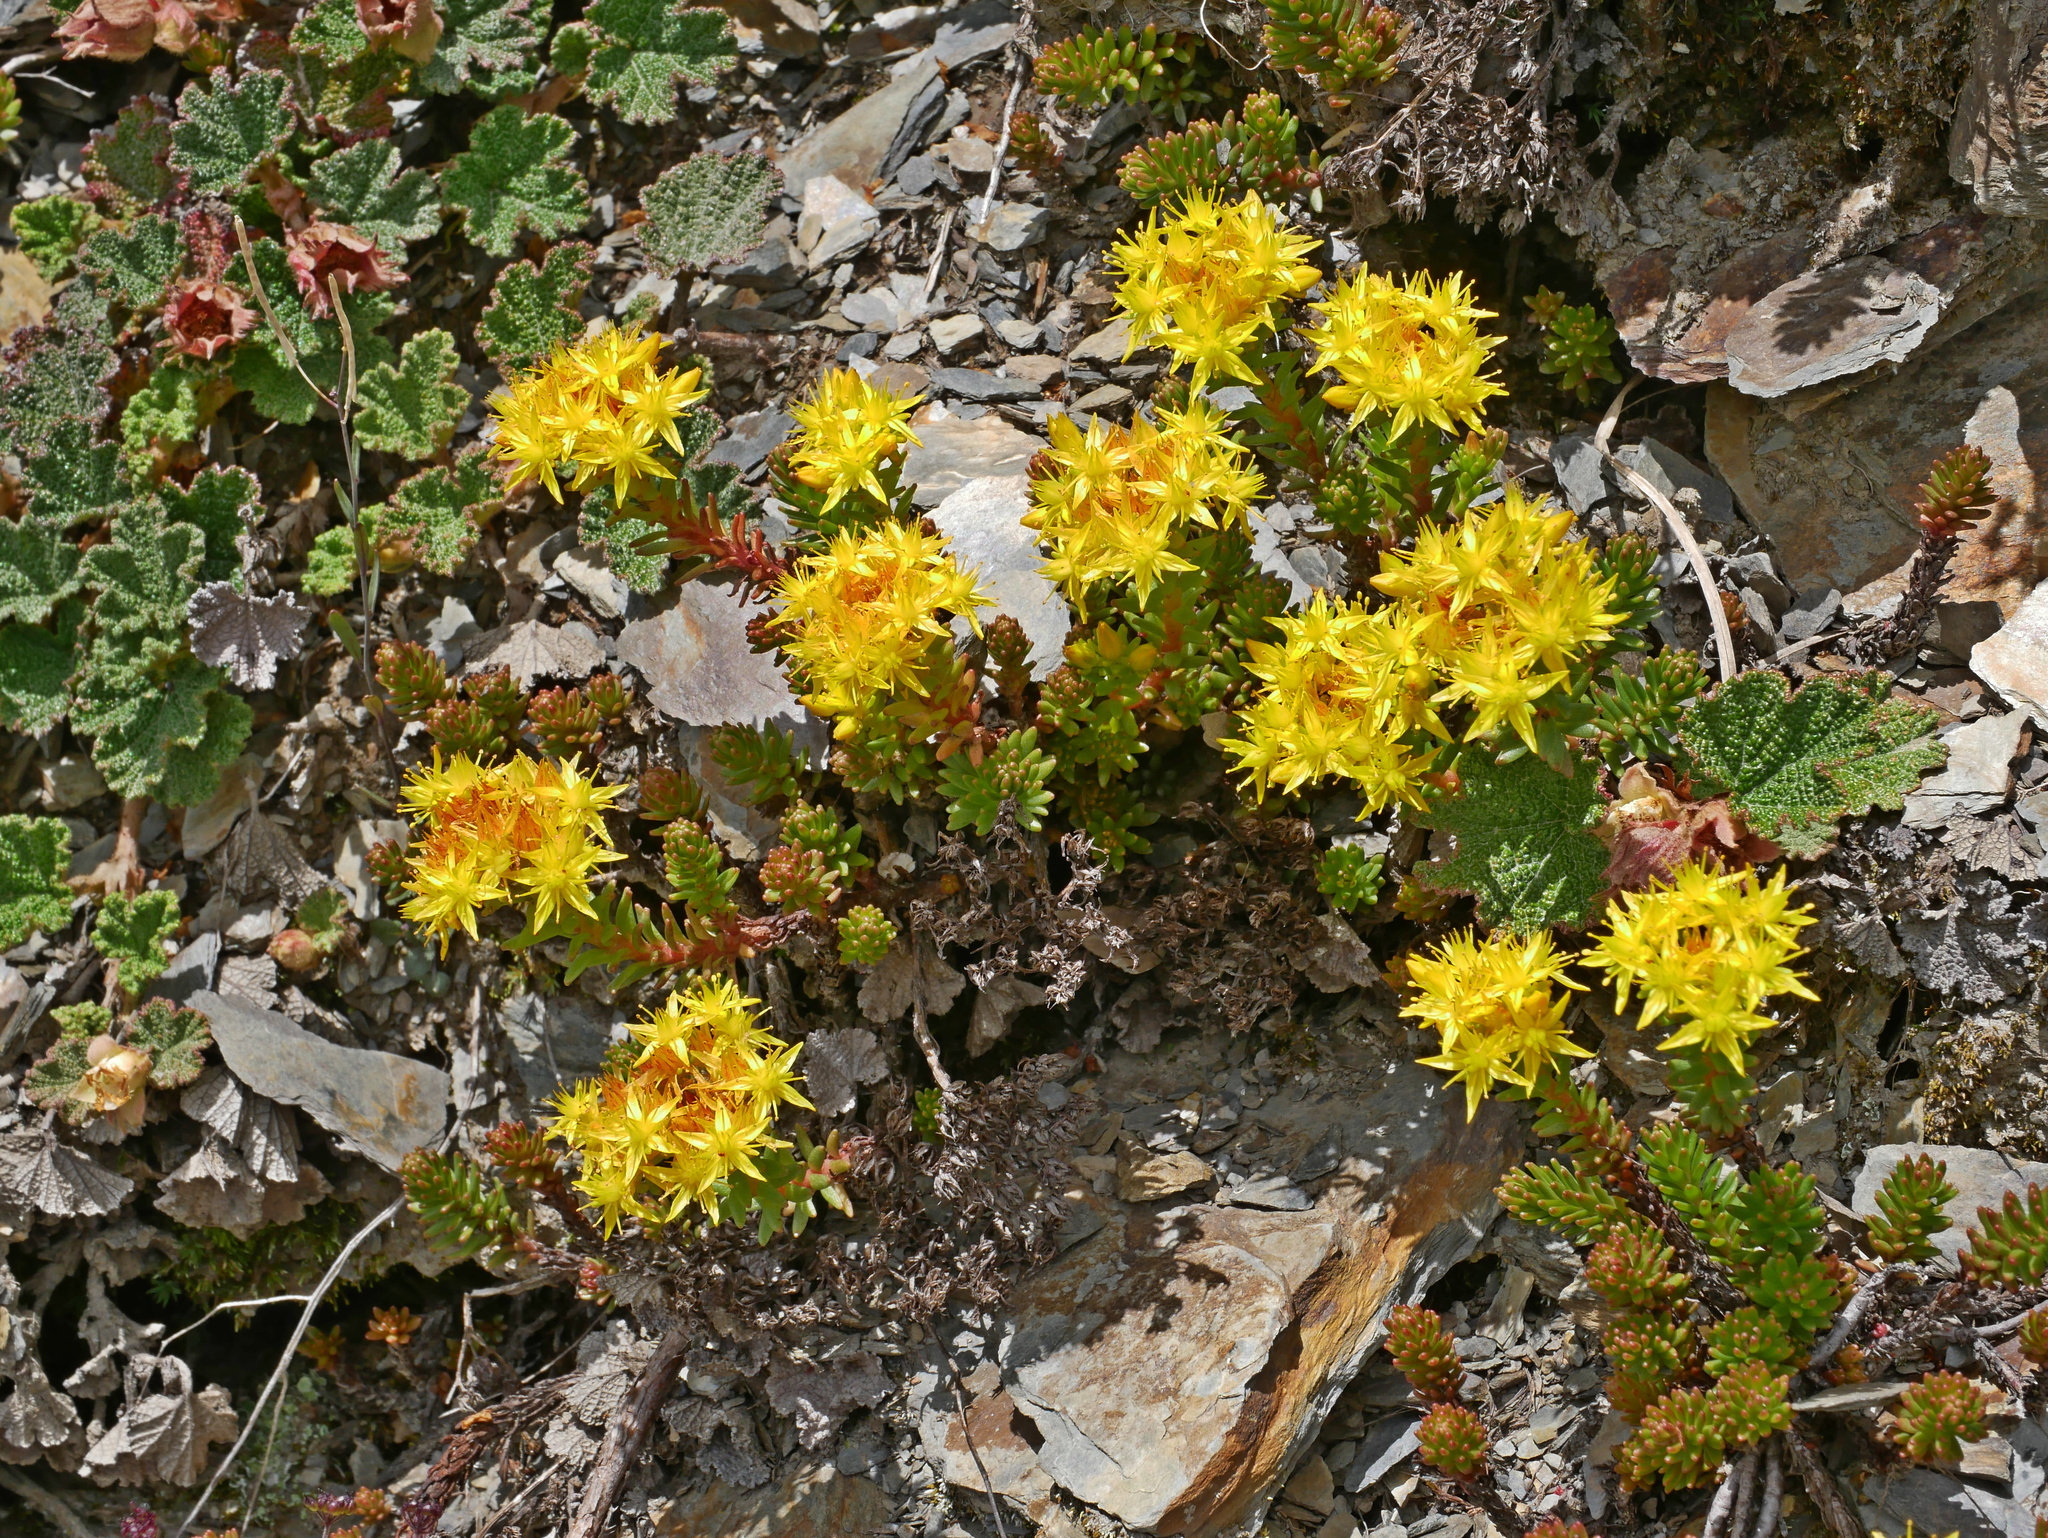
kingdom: Plantae
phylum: Tracheophyta
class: Magnoliopsida
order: Saxifragales
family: Crassulaceae
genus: Sedum
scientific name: Sedum morrisonense
